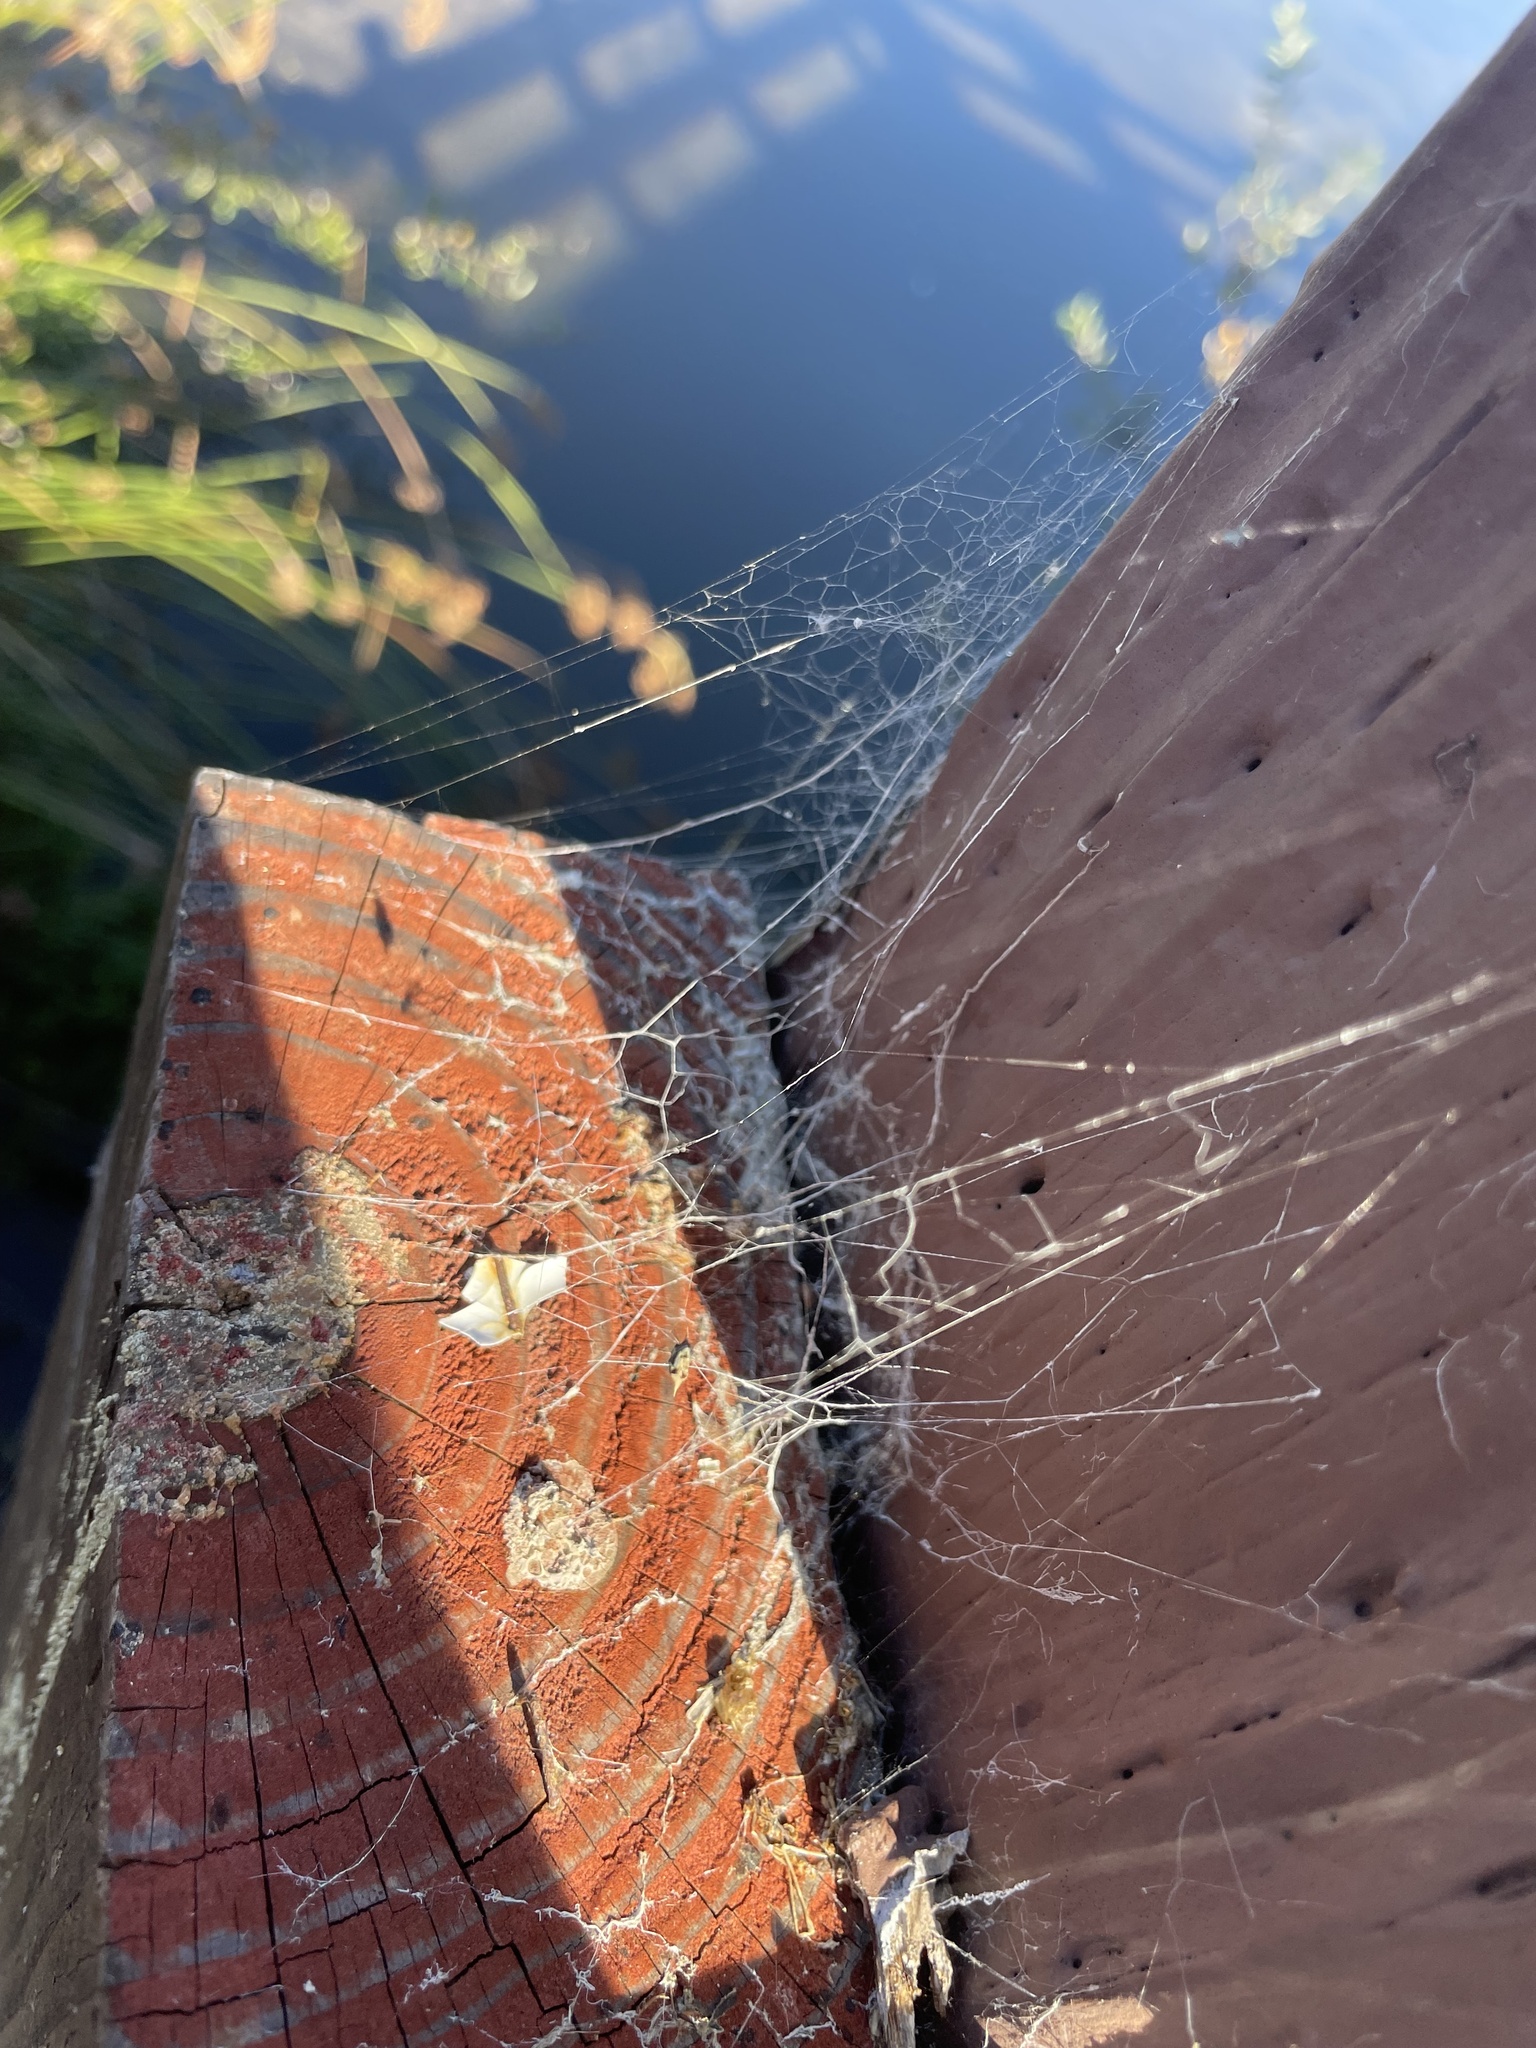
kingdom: Animalia
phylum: Arthropoda
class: Arachnida
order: Araneae
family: Desidae
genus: Badumna
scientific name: Badumna longinqua
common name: Gray house spider
